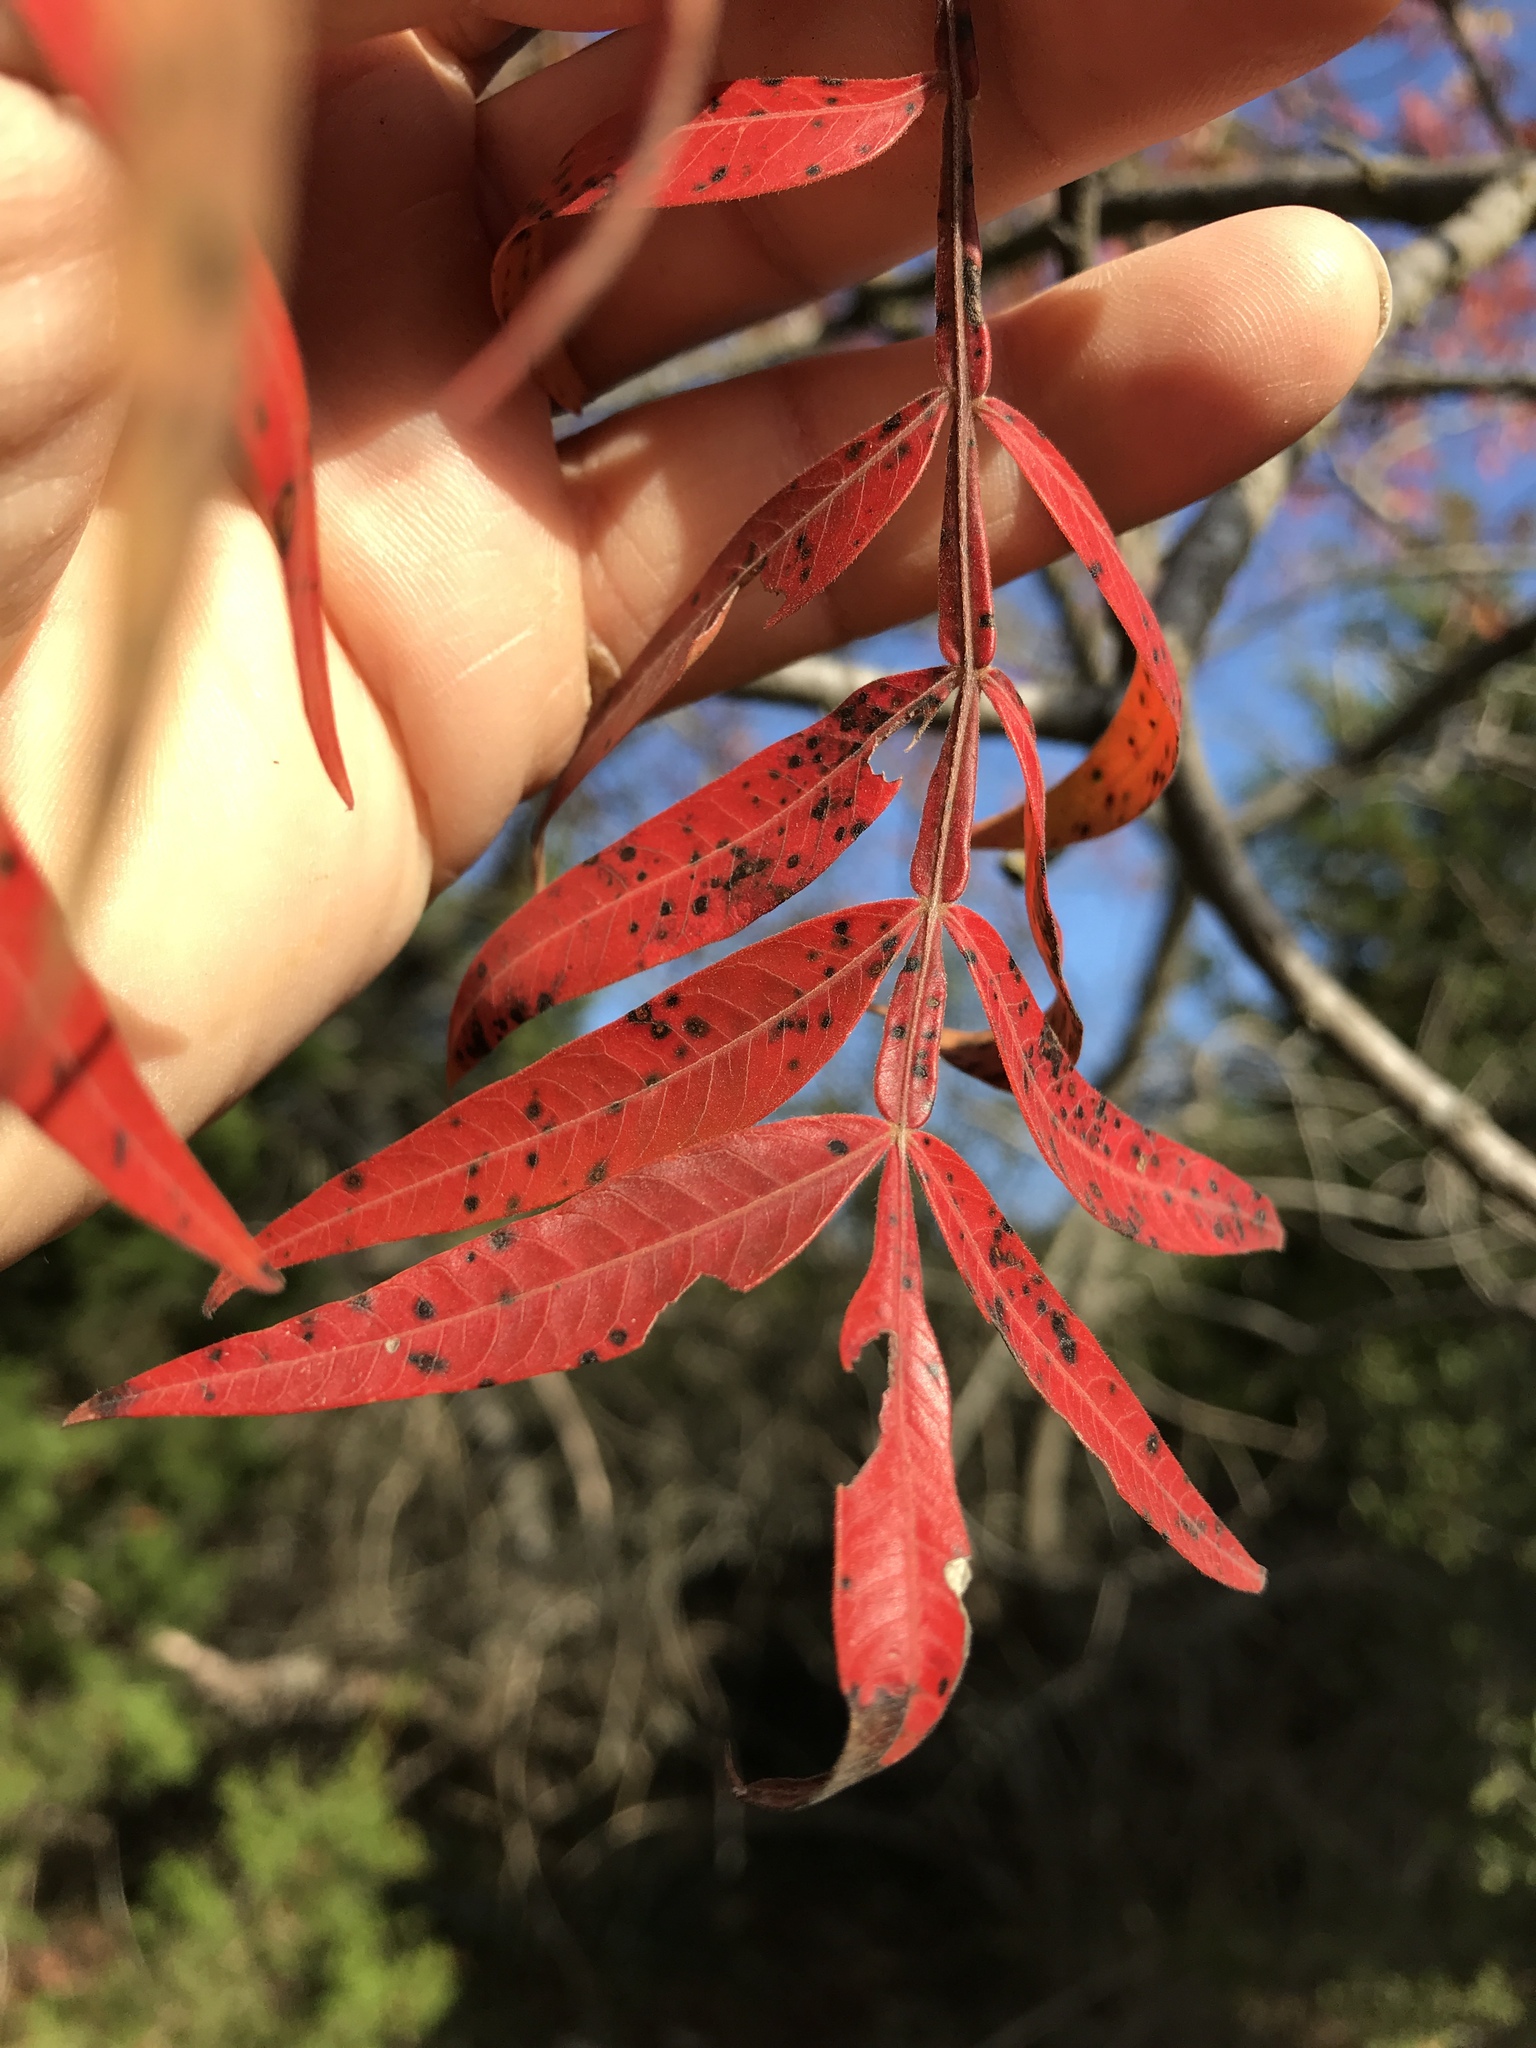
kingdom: Plantae
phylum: Tracheophyta
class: Magnoliopsida
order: Sapindales
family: Anacardiaceae
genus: Rhus
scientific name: Rhus lanceolata
